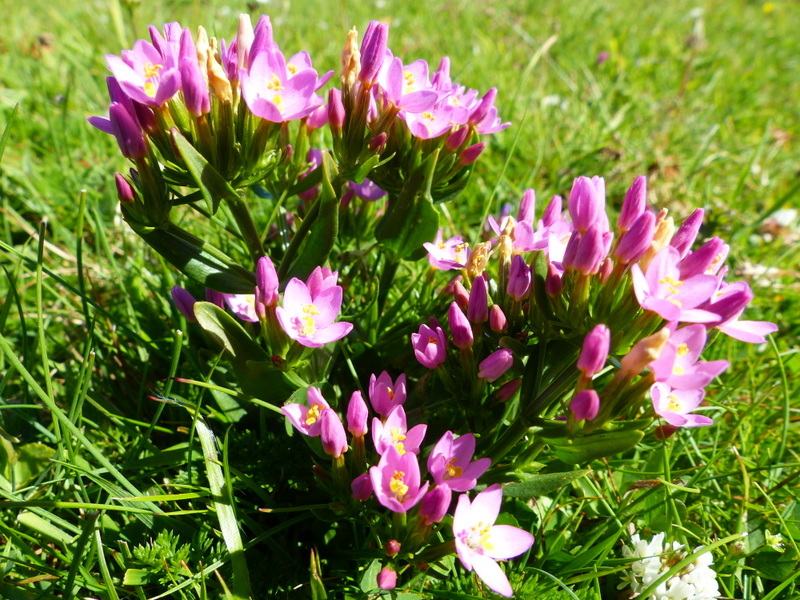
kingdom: Plantae
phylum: Tracheophyta
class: Magnoliopsida
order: Gentianales
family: Gentianaceae
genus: Centaurium
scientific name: Centaurium erythraea
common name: Common centaury
